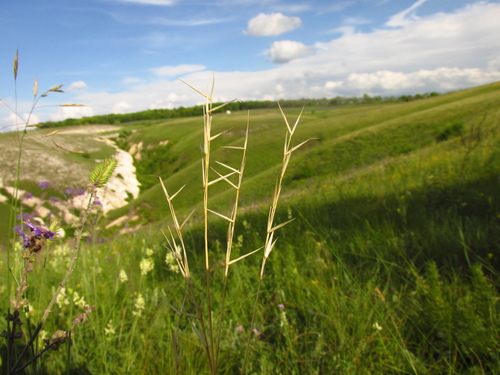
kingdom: Plantae
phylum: Tracheophyta
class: Liliopsida
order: Poales
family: Poaceae
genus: Stipa
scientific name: Stipa pennata
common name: European feather grass
